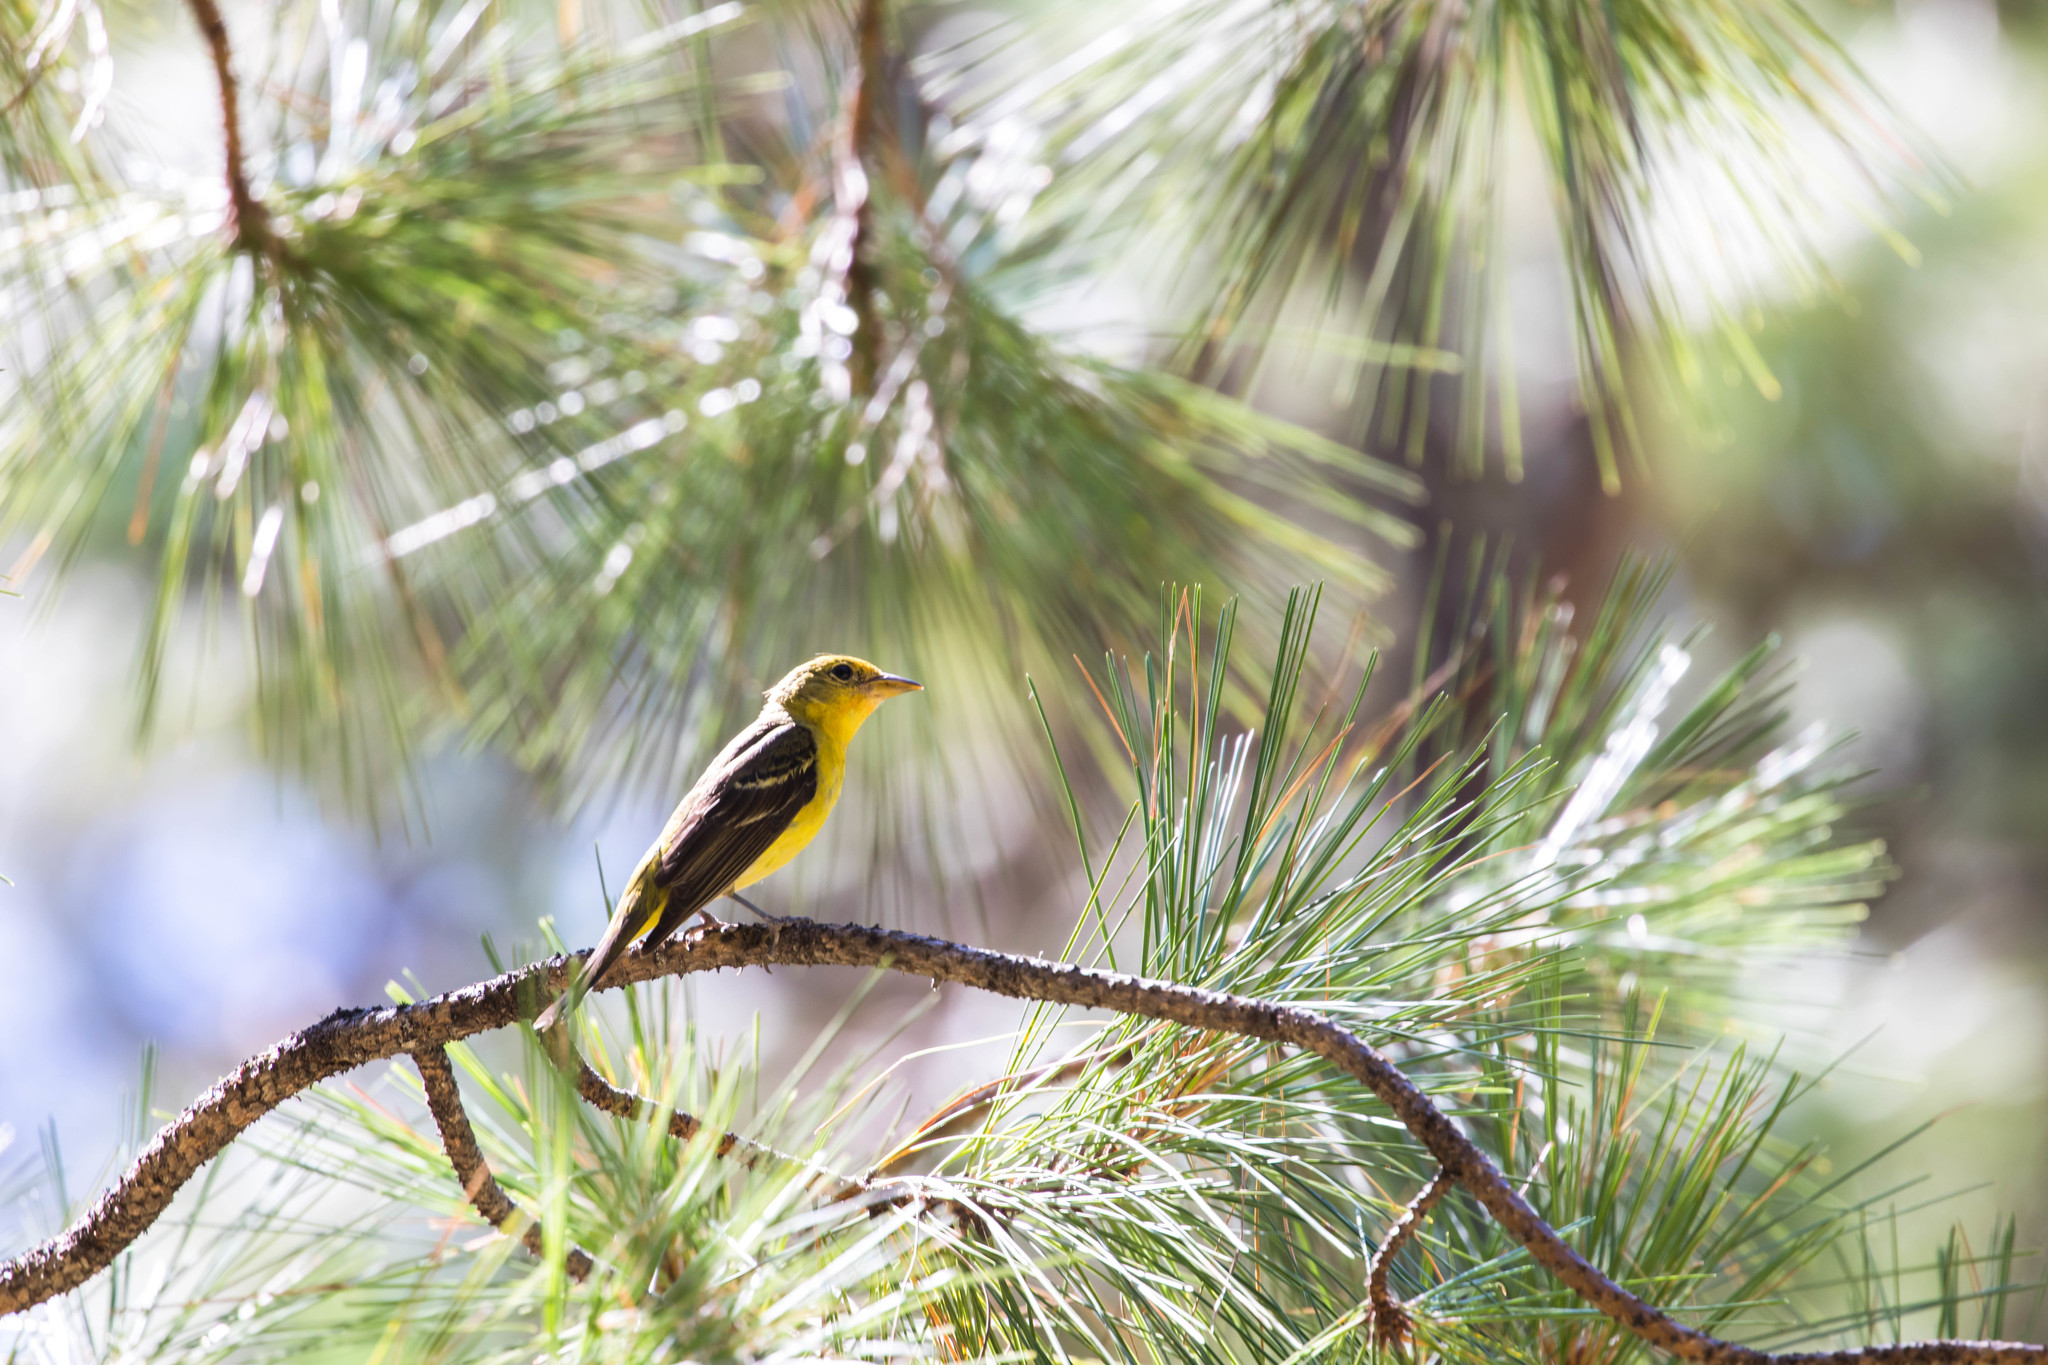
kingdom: Animalia
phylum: Chordata
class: Aves
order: Passeriformes
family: Cardinalidae
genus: Piranga
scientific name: Piranga ludoviciana
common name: Western tanager
